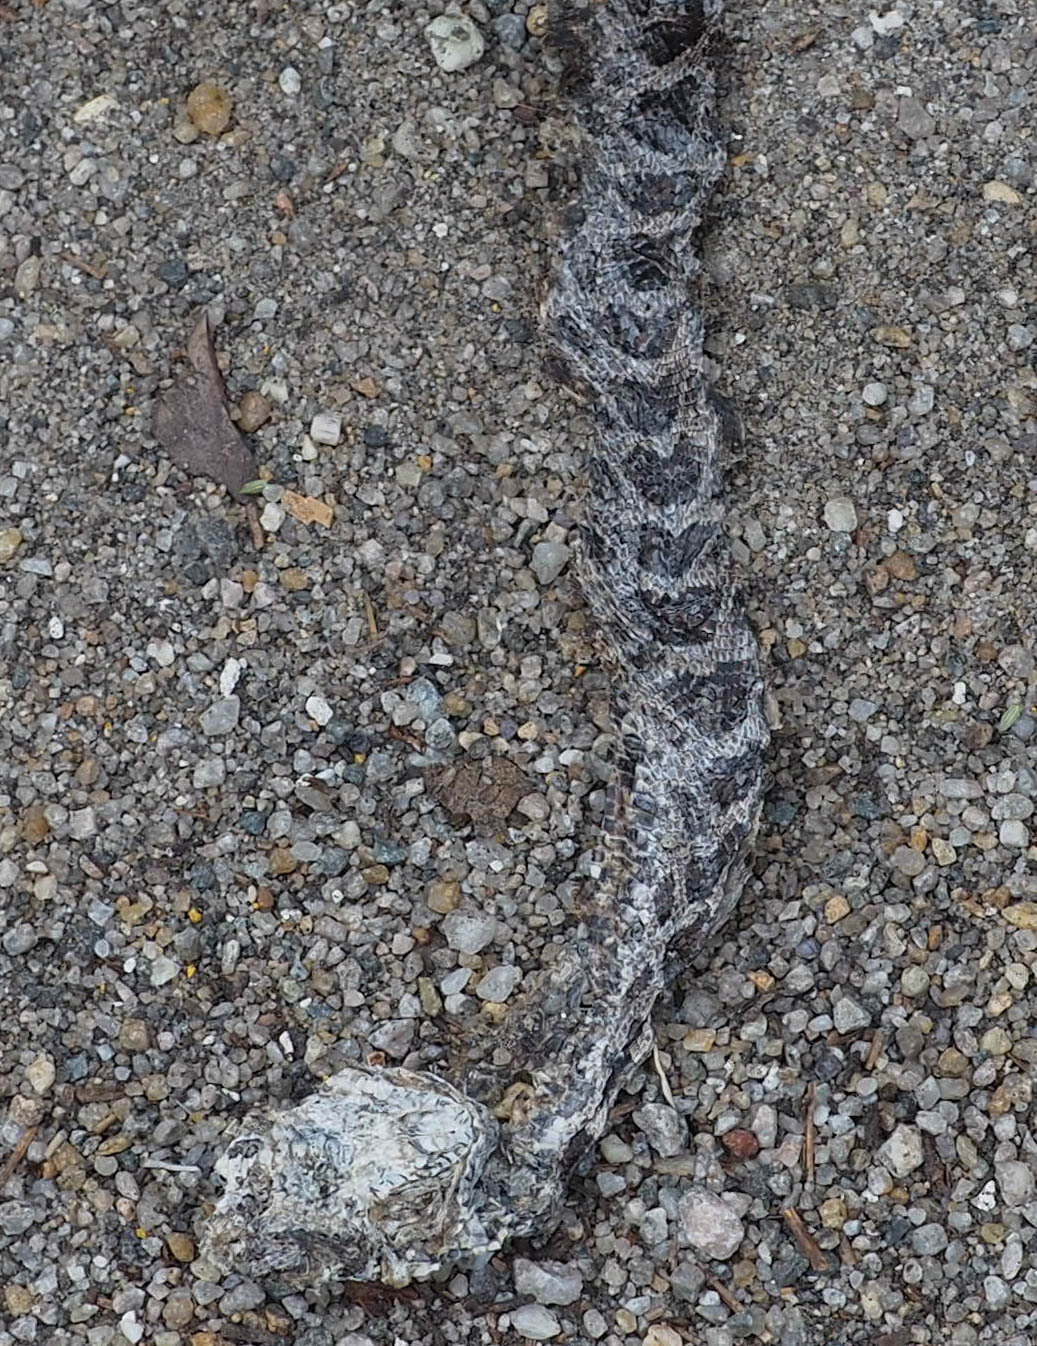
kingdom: Animalia
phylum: Chordata
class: Squamata
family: Colubridae
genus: Pantherophis
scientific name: Pantherophis
